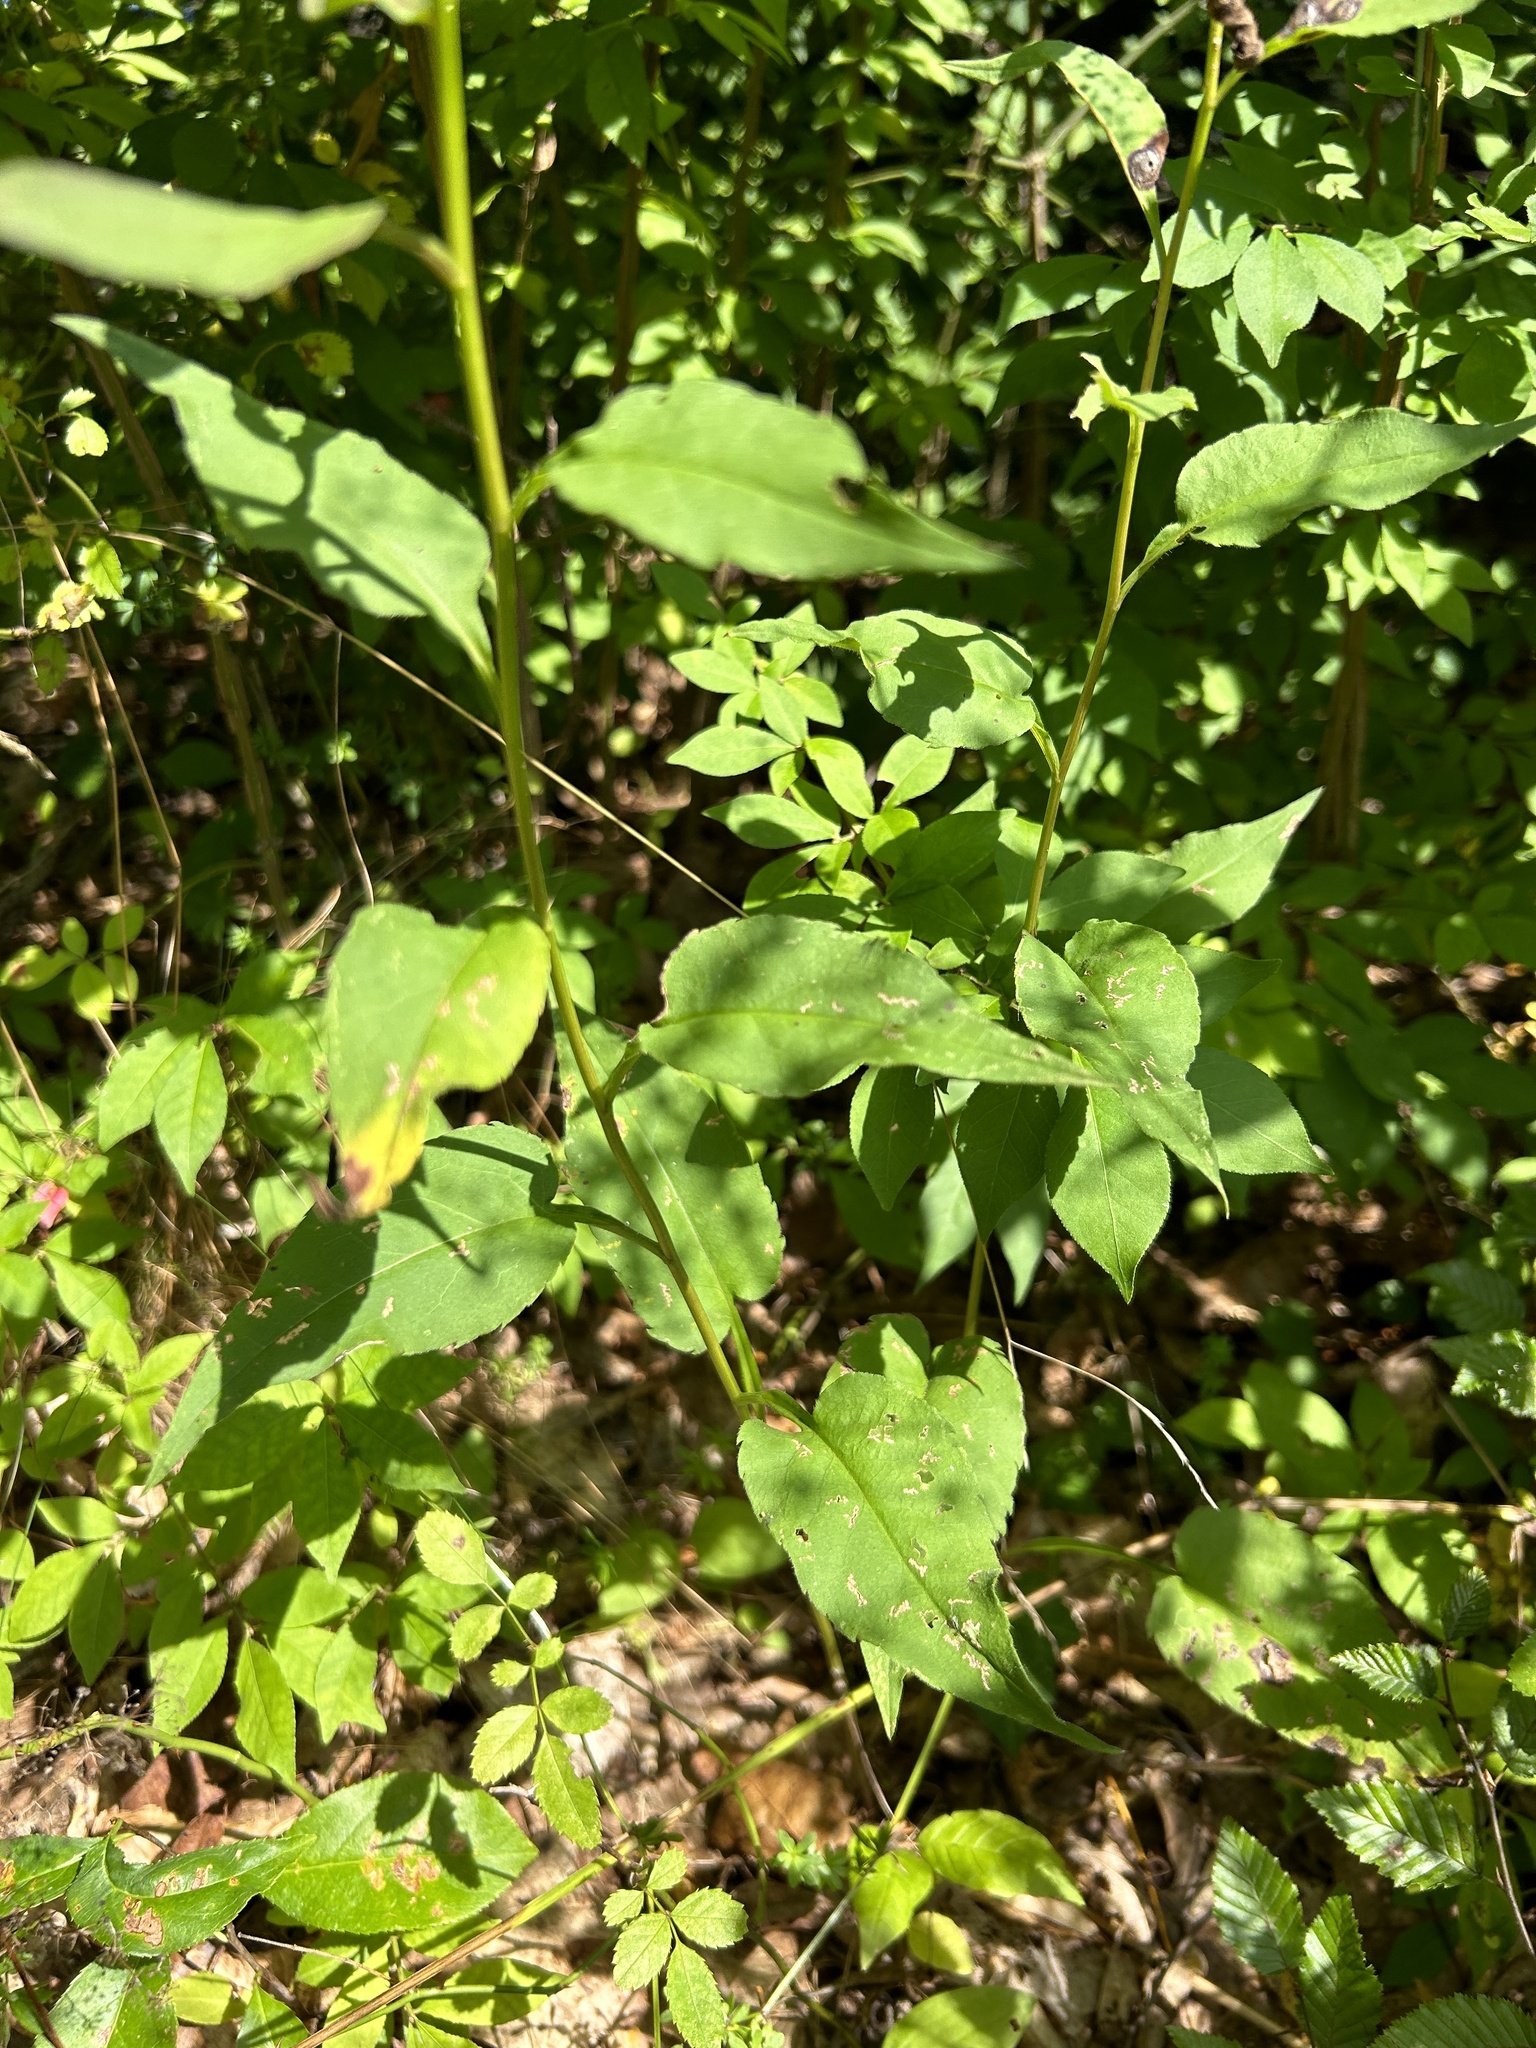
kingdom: Plantae
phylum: Tracheophyta
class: Magnoliopsida
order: Asterales
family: Asteraceae
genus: Symphyotrichum
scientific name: Symphyotrichum urophyllum
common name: Arrow-leaved aster
